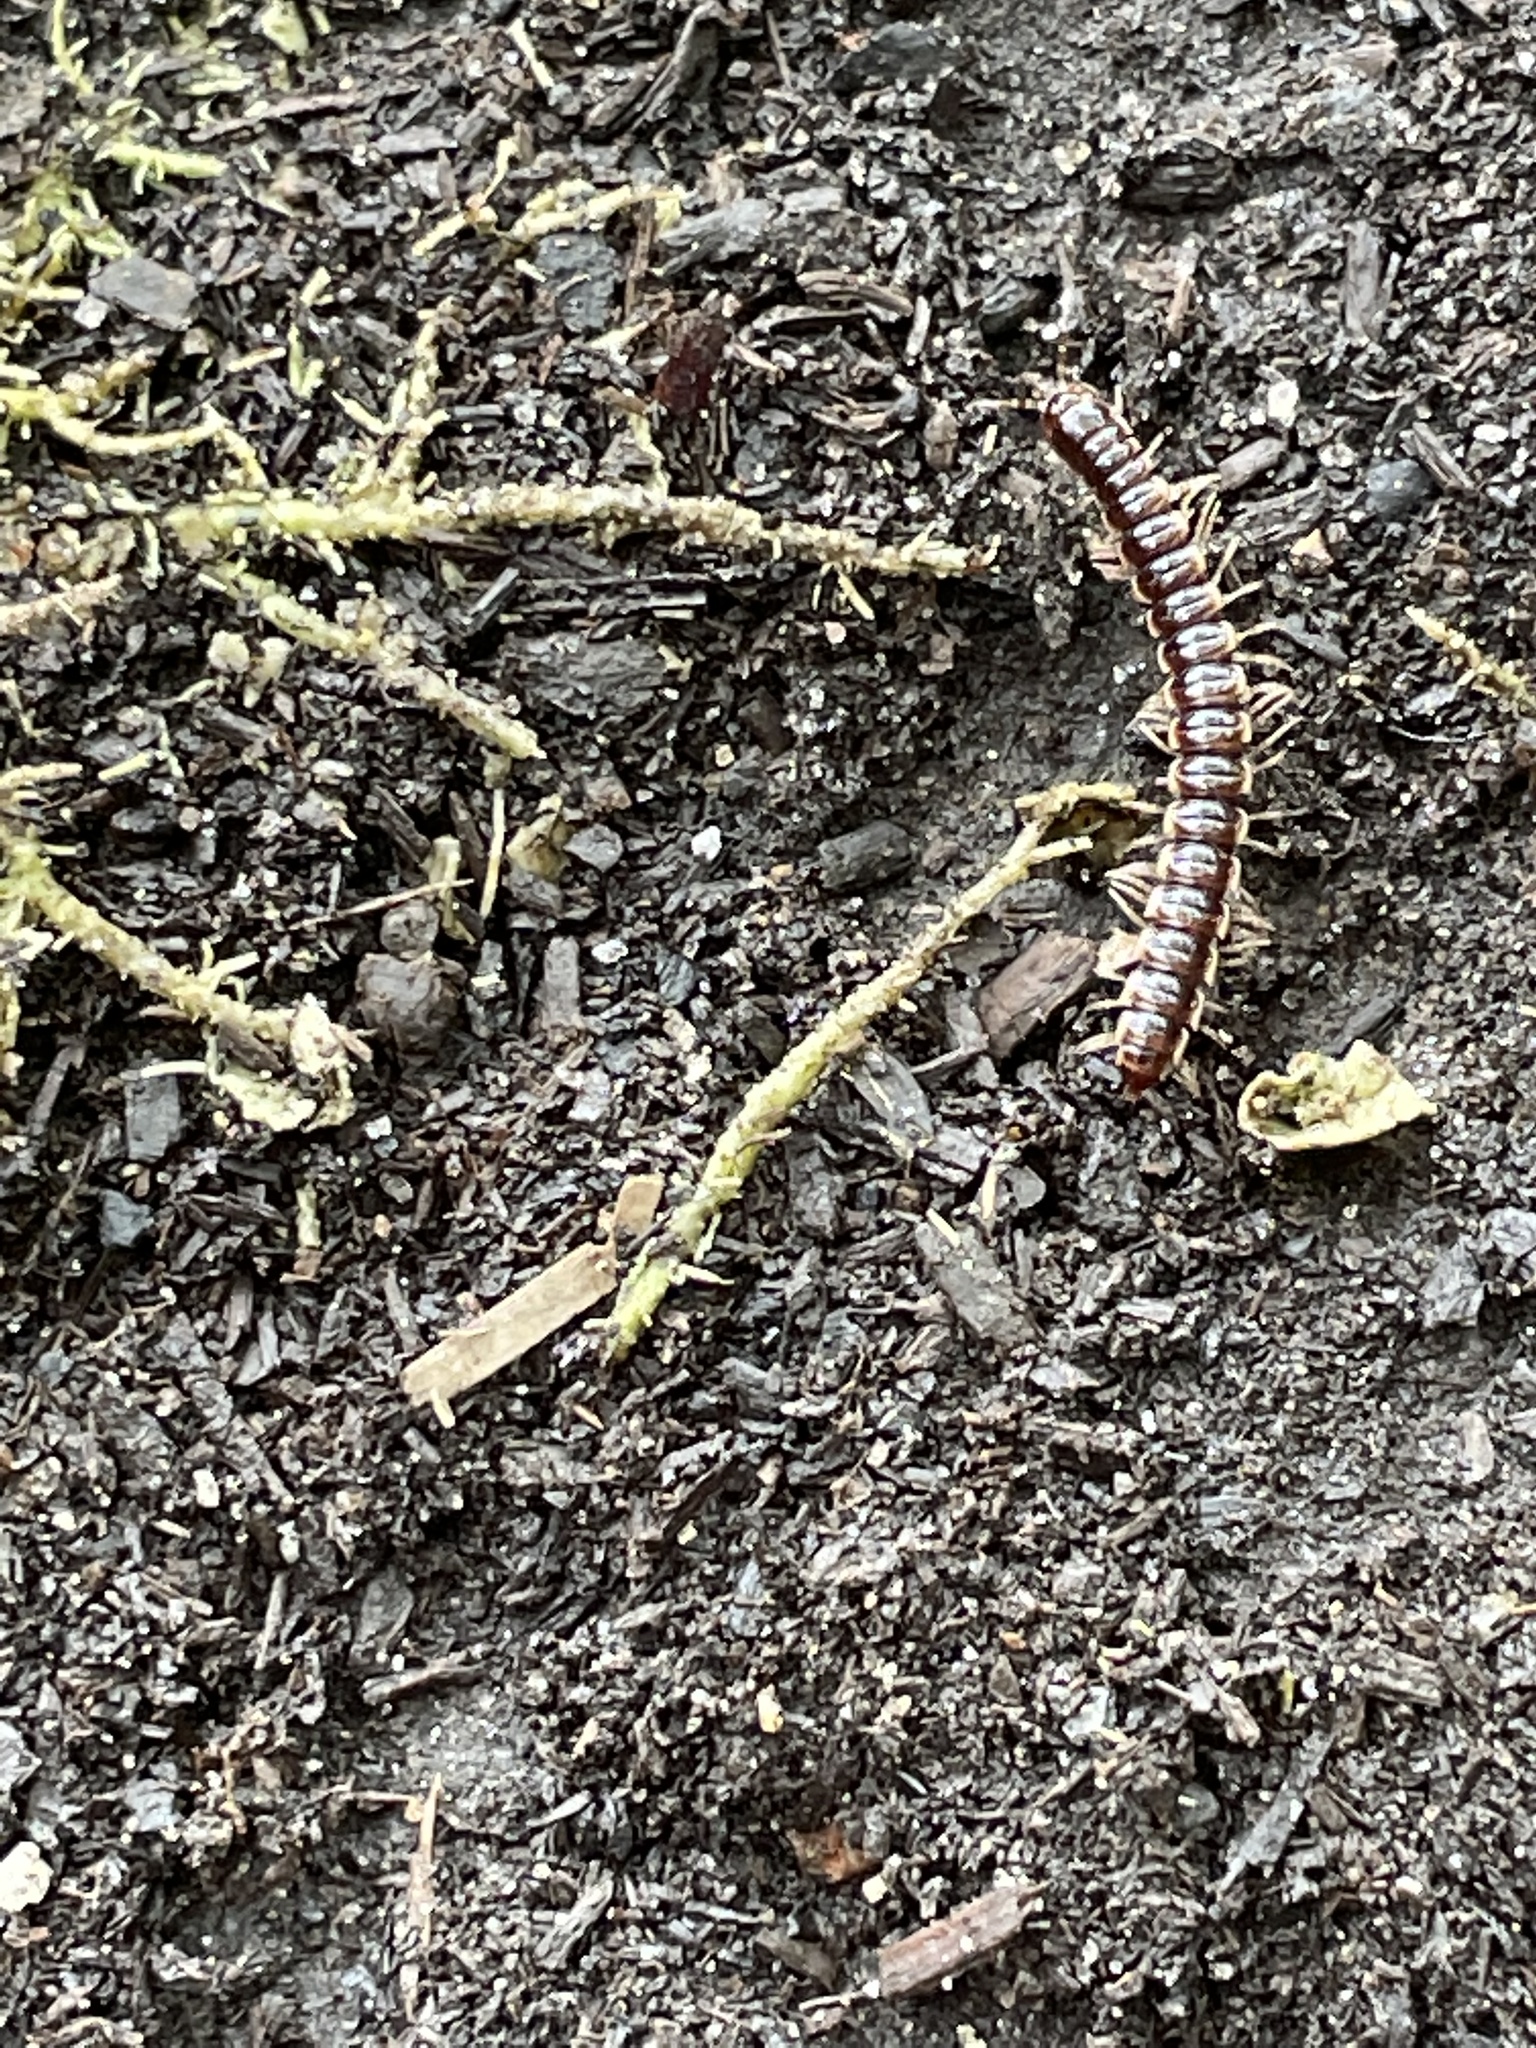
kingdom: Animalia
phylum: Arthropoda
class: Diplopoda
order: Polydesmida
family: Paradoxosomatidae
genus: Oxidus
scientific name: Oxidus gracilis
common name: Greenhouse millipede
